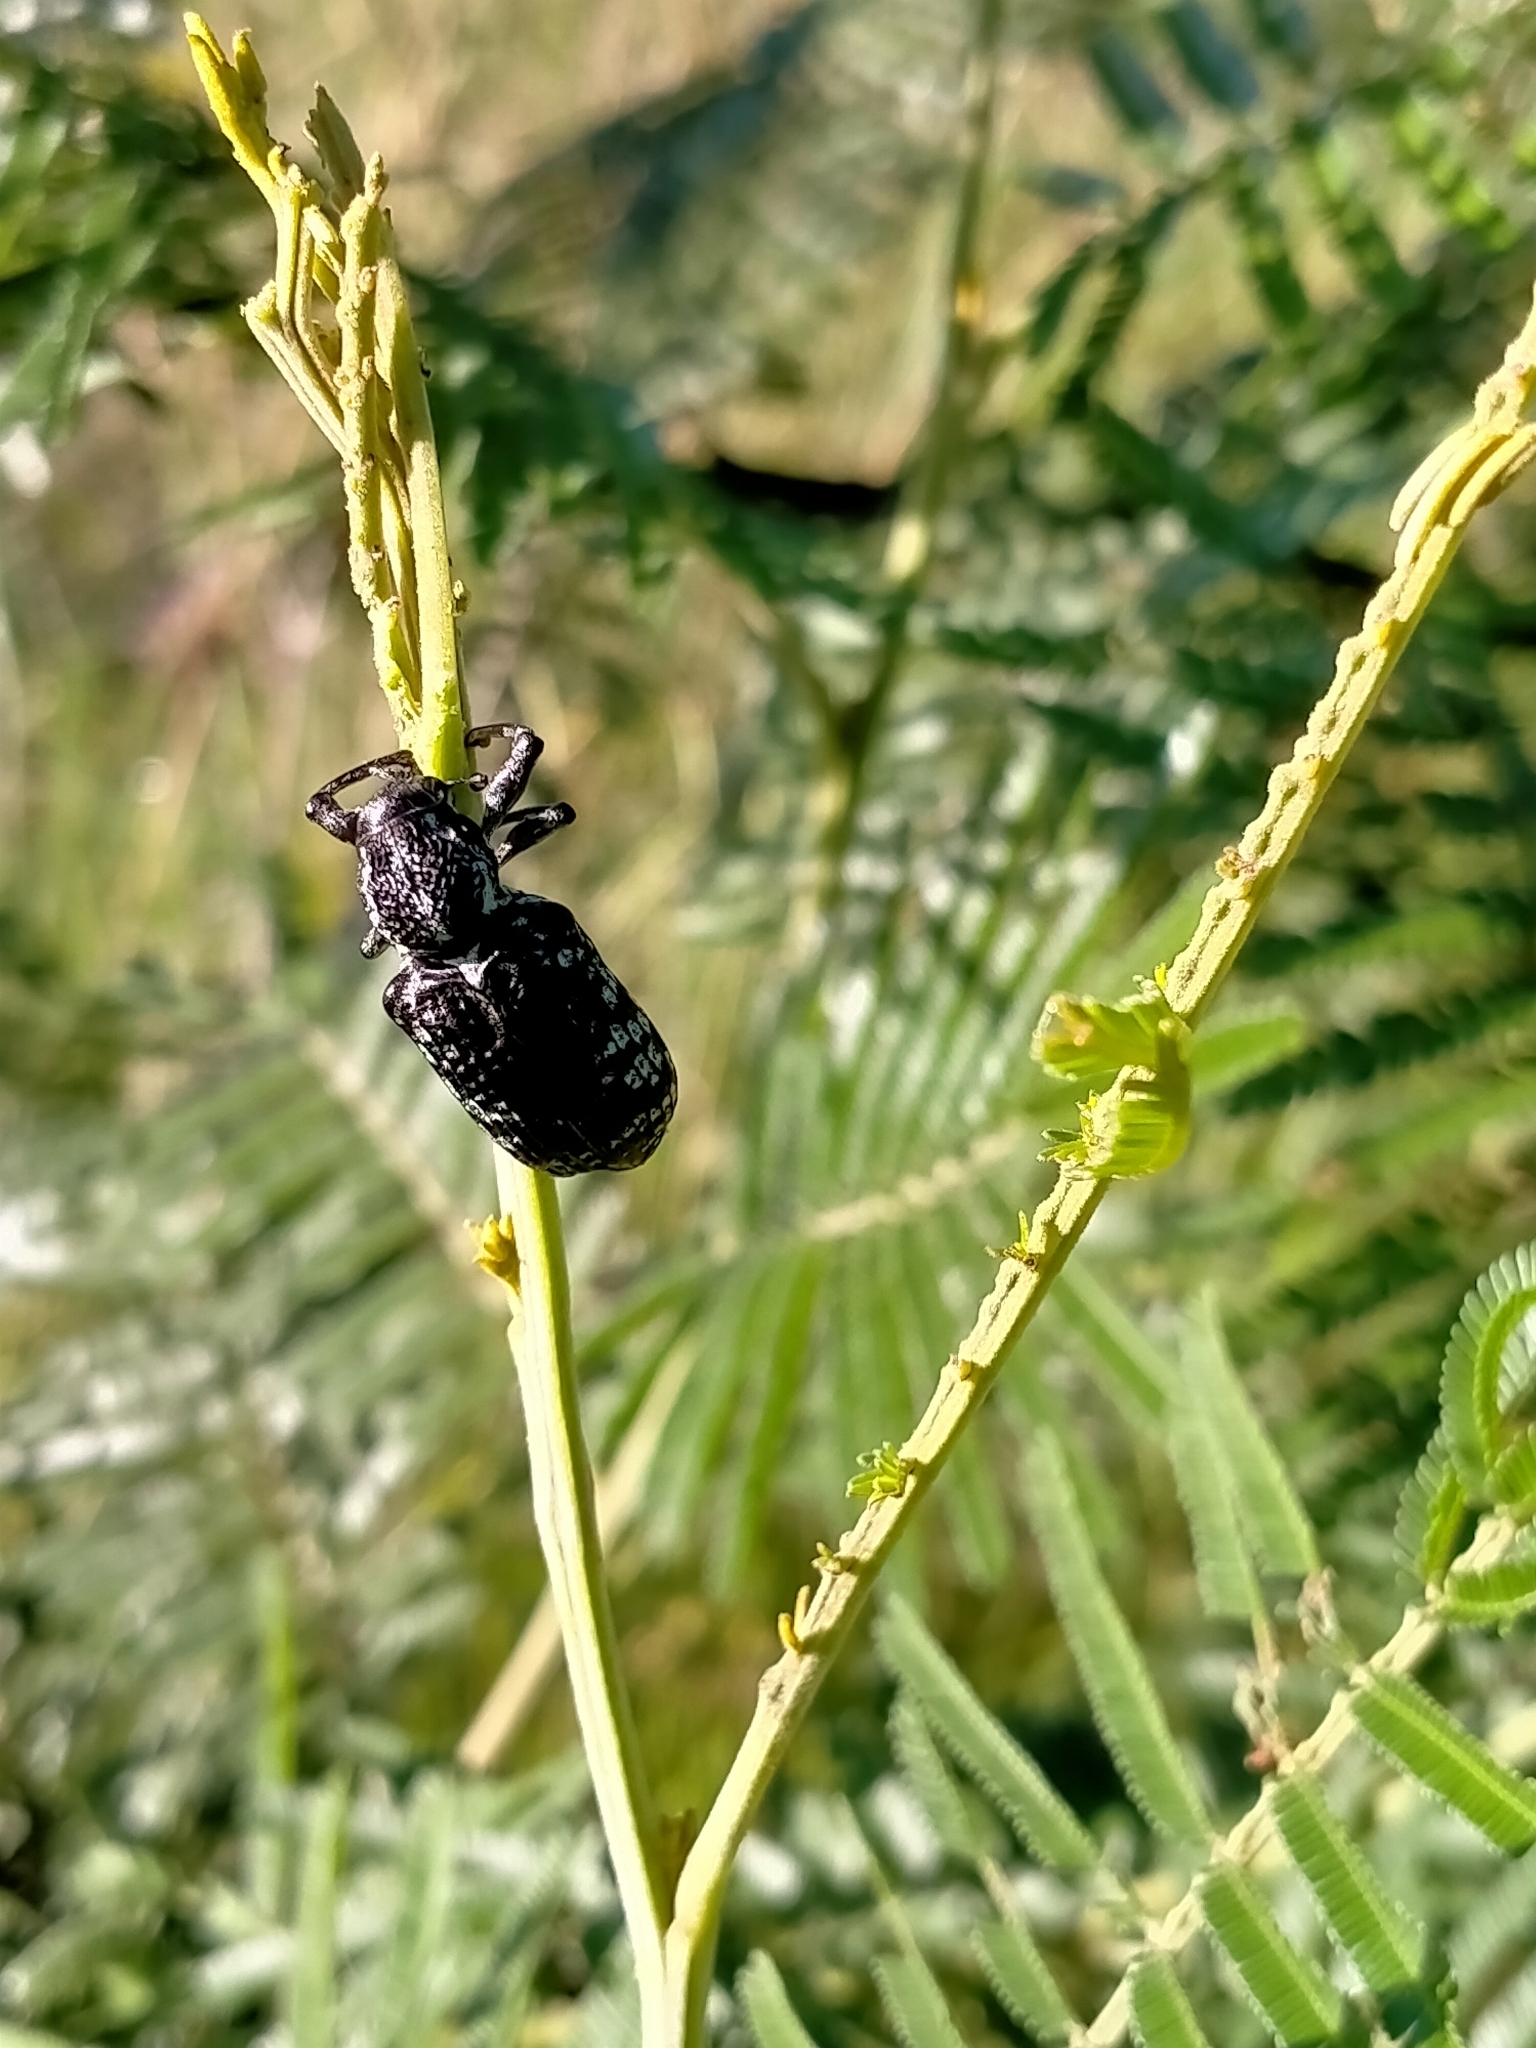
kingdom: Animalia
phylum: Arthropoda
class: Insecta
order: Coleoptera
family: Curculionidae
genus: Chrysolopus
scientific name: Chrysolopus spectabilis
